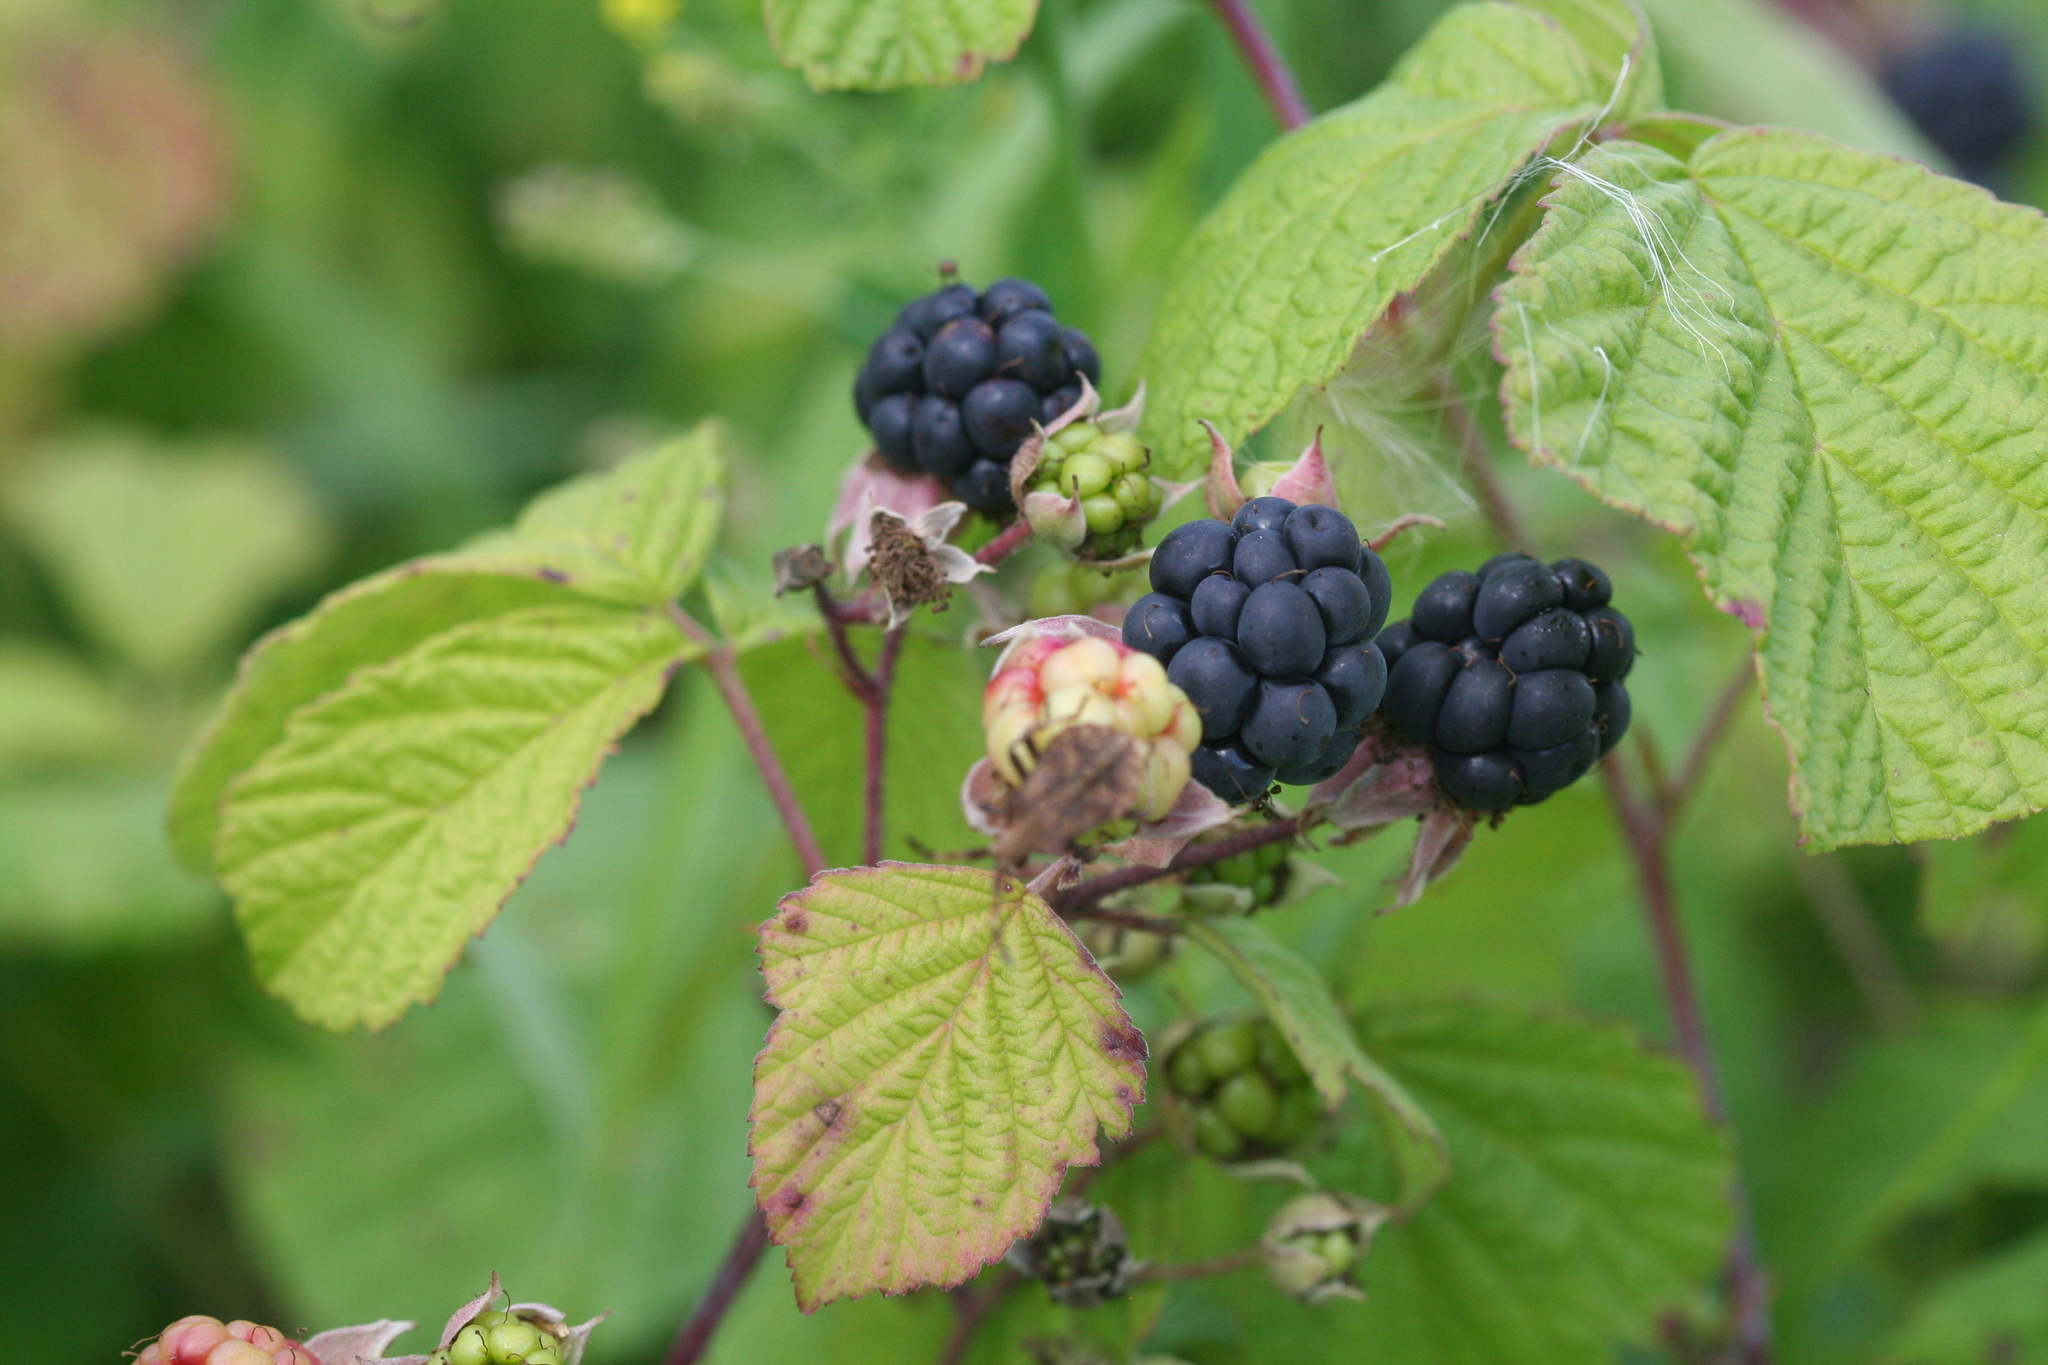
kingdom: Plantae
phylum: Tracheophyta
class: Magnoliopsida
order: Rosales
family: Rosaceae
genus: Rubus
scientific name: Rubus caesius
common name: Dewberry
